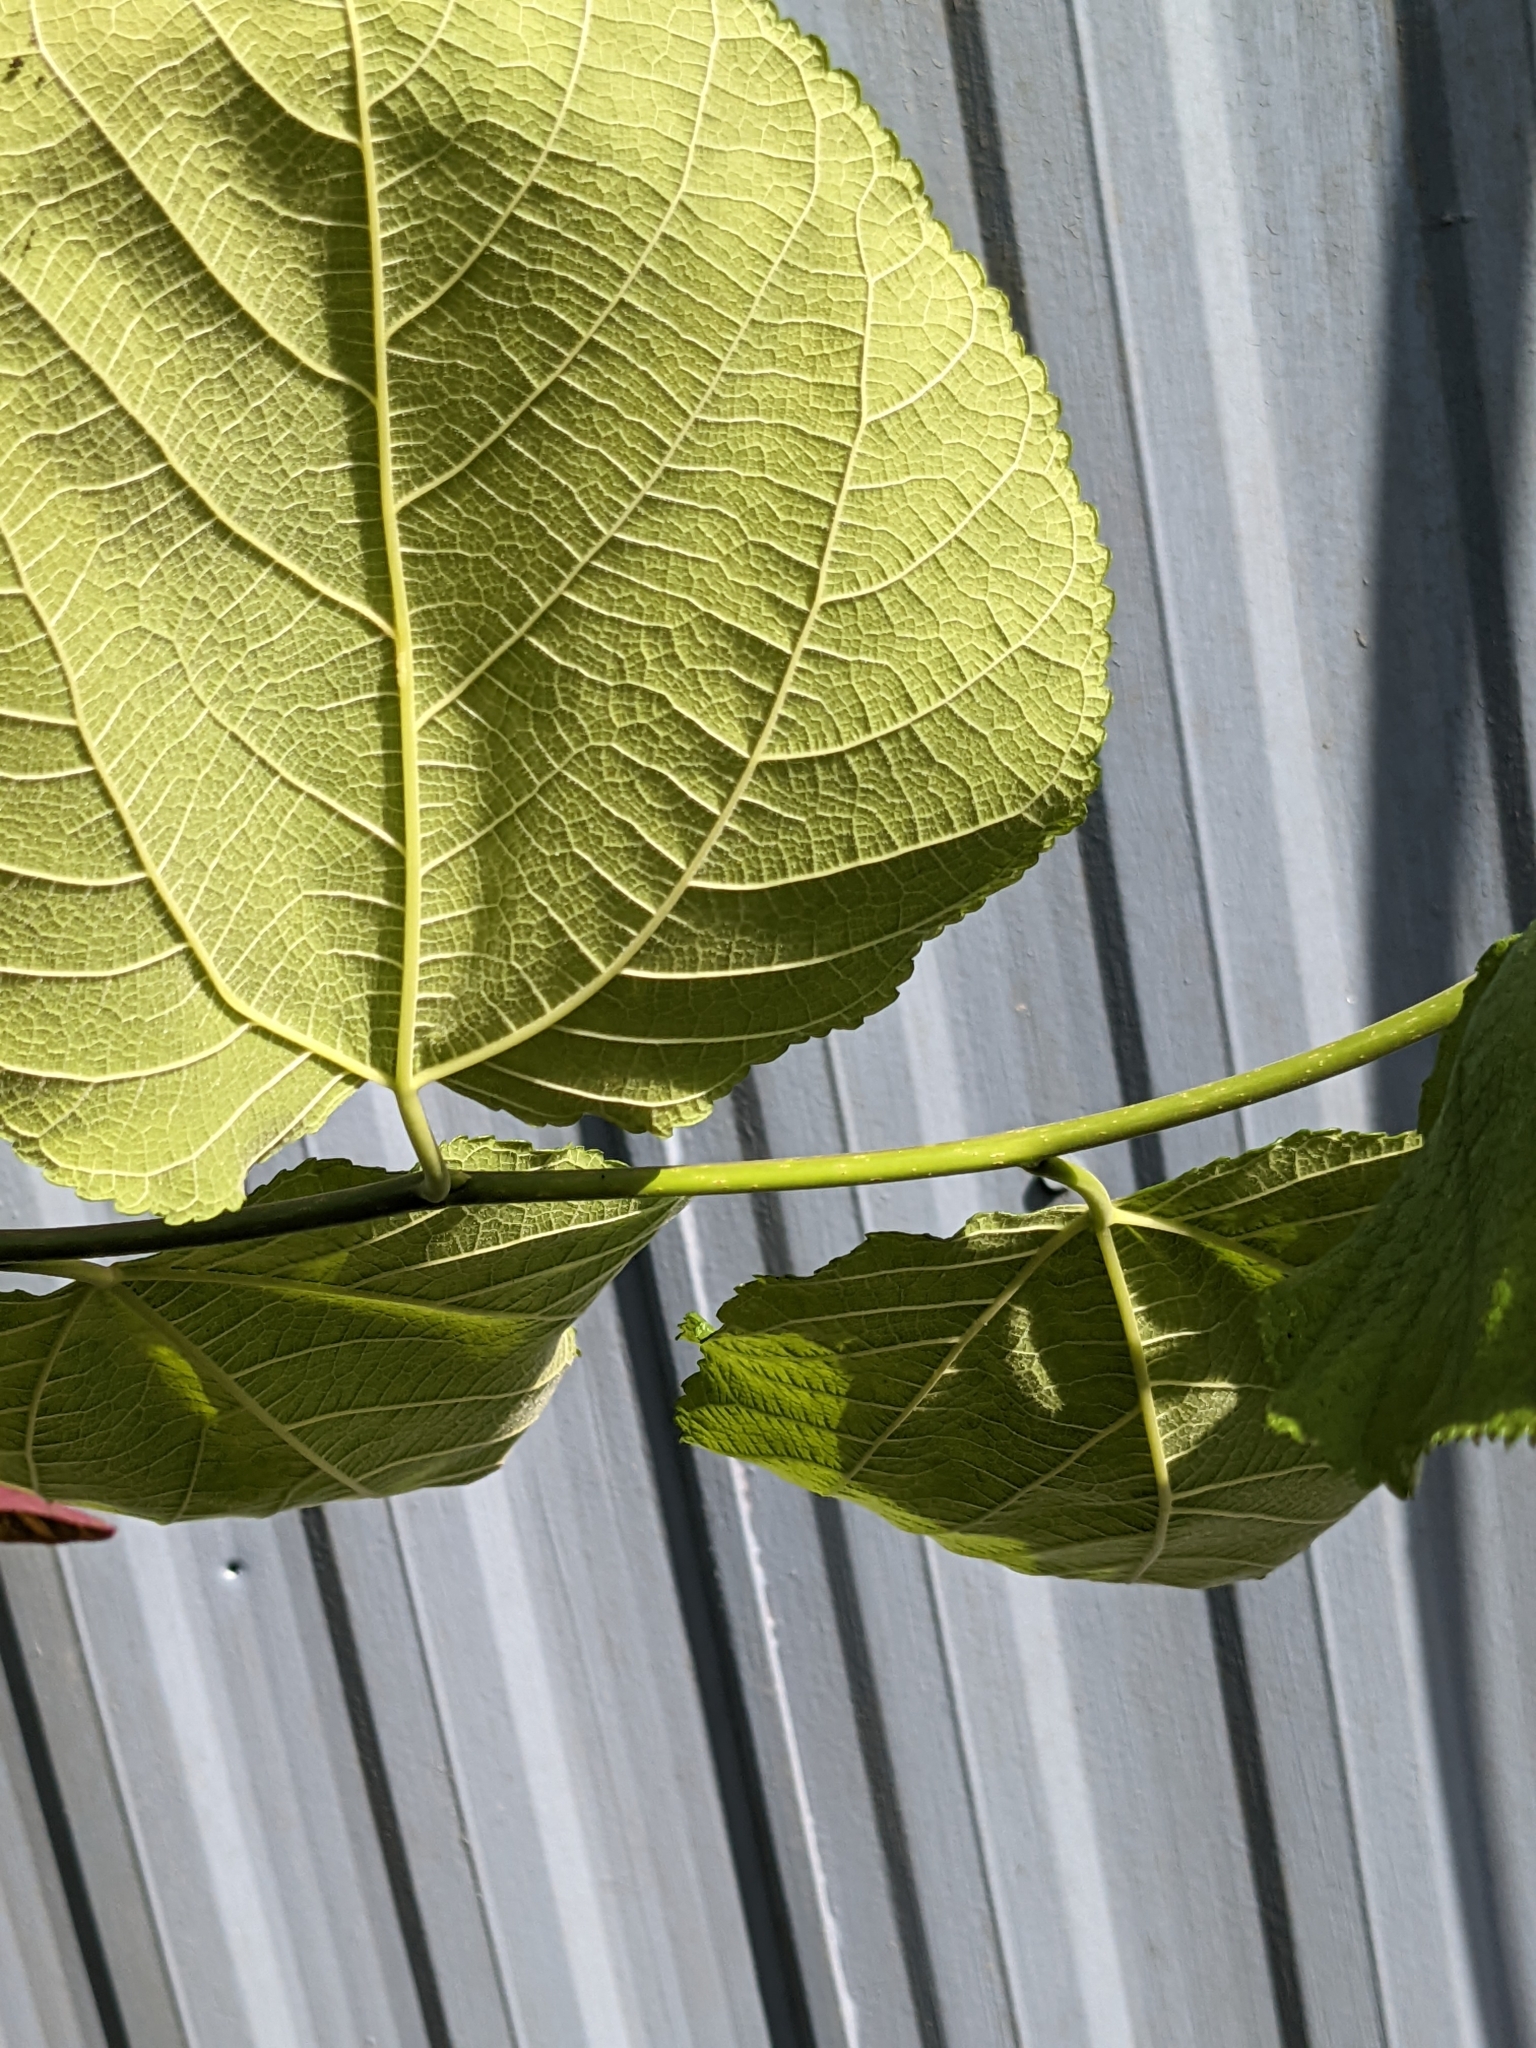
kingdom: Plantae
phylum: Tracheophyta
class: Magnoliopsida
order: Rosales
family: Moraceae
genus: Morus
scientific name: Morus rubra
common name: Red mulberry
